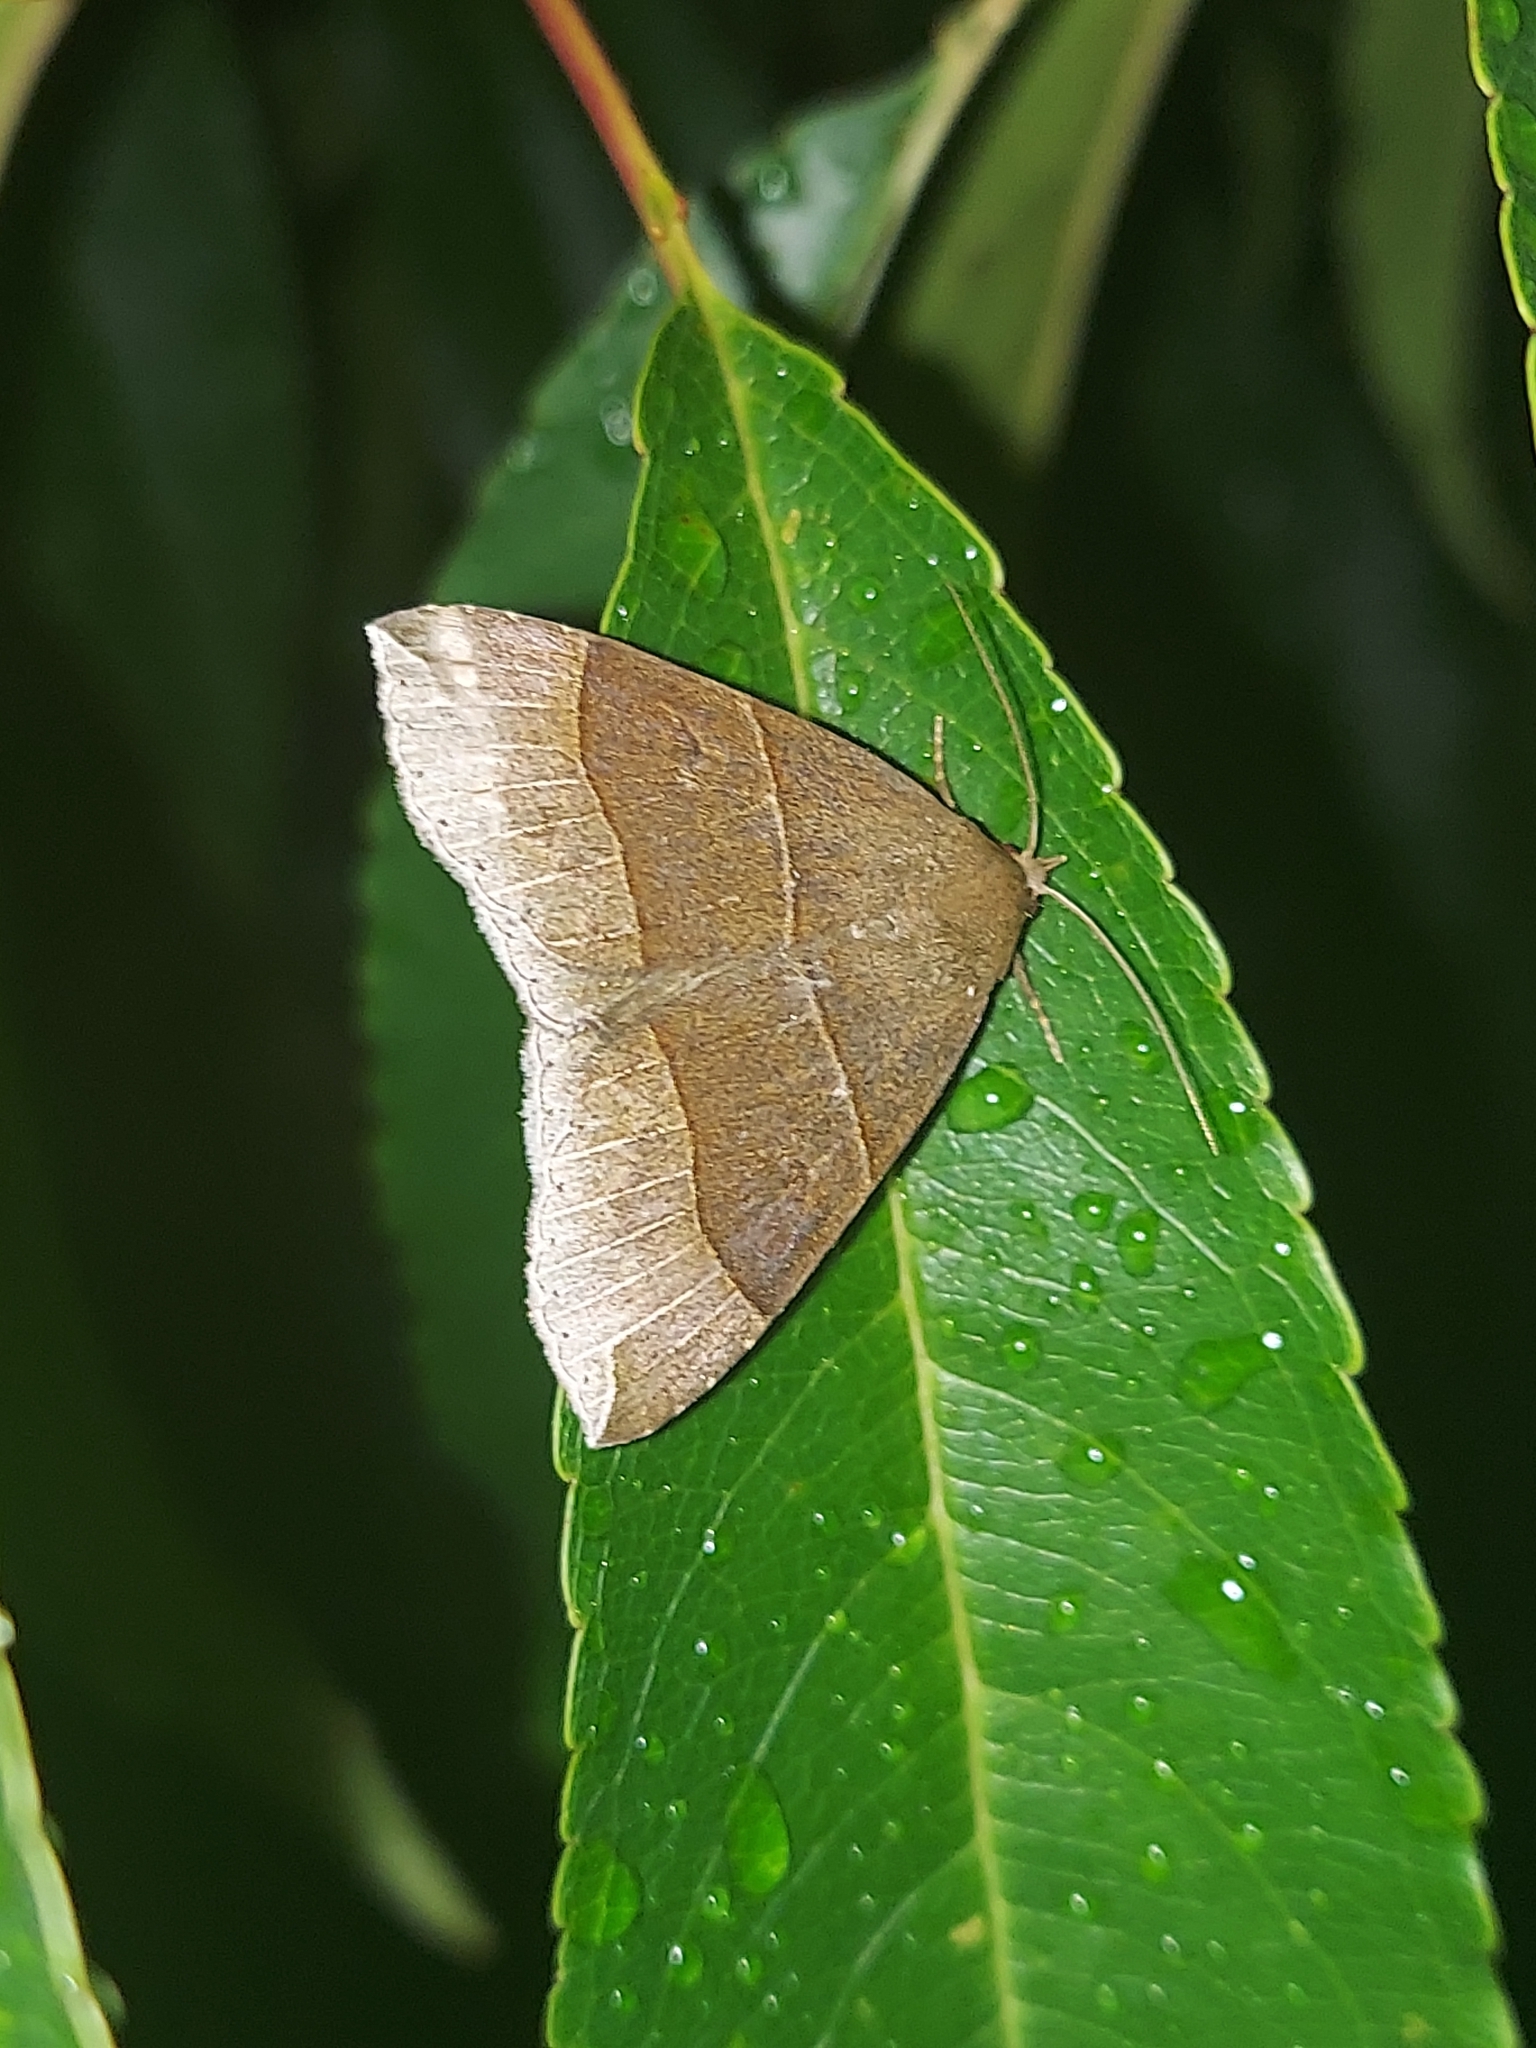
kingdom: Animalia
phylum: Arthropoda
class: Insecta
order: Lepidoptera
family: Erebidae
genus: Parallelia
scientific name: Parallelia bistriaris
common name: Maple looper moth
